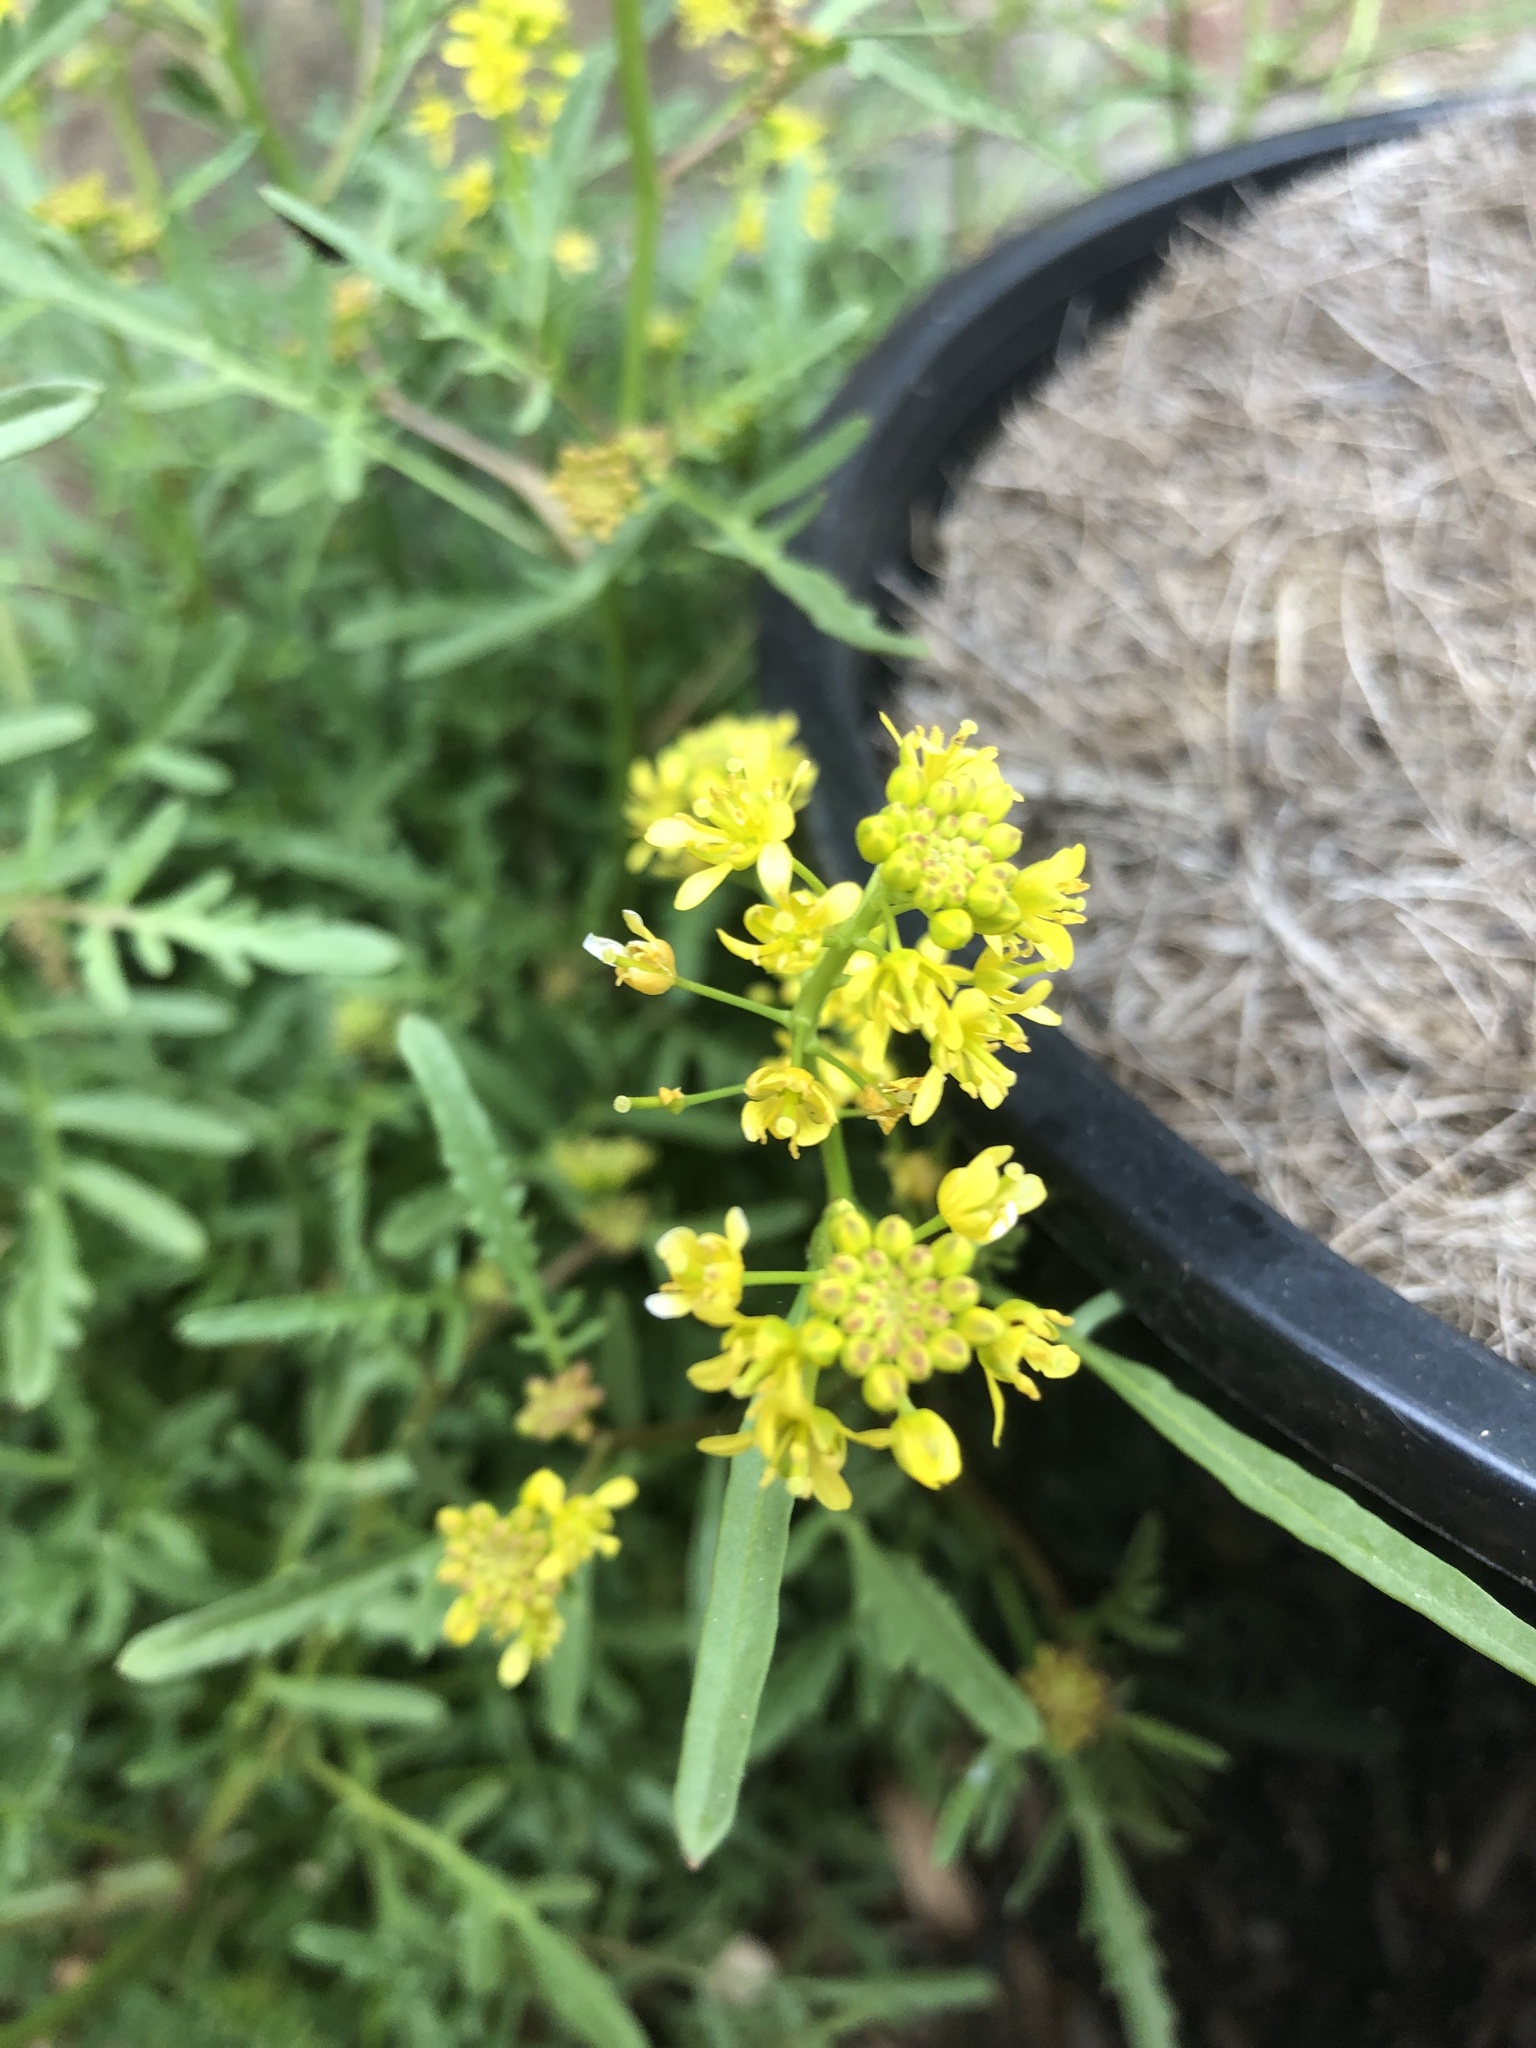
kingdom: Plantae
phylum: Tracheophyta
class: Magnoliopsida
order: Brassicales
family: Brassicaceae
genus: Rorippa
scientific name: Rorippa sylvestris
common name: Creeping yellowcress
